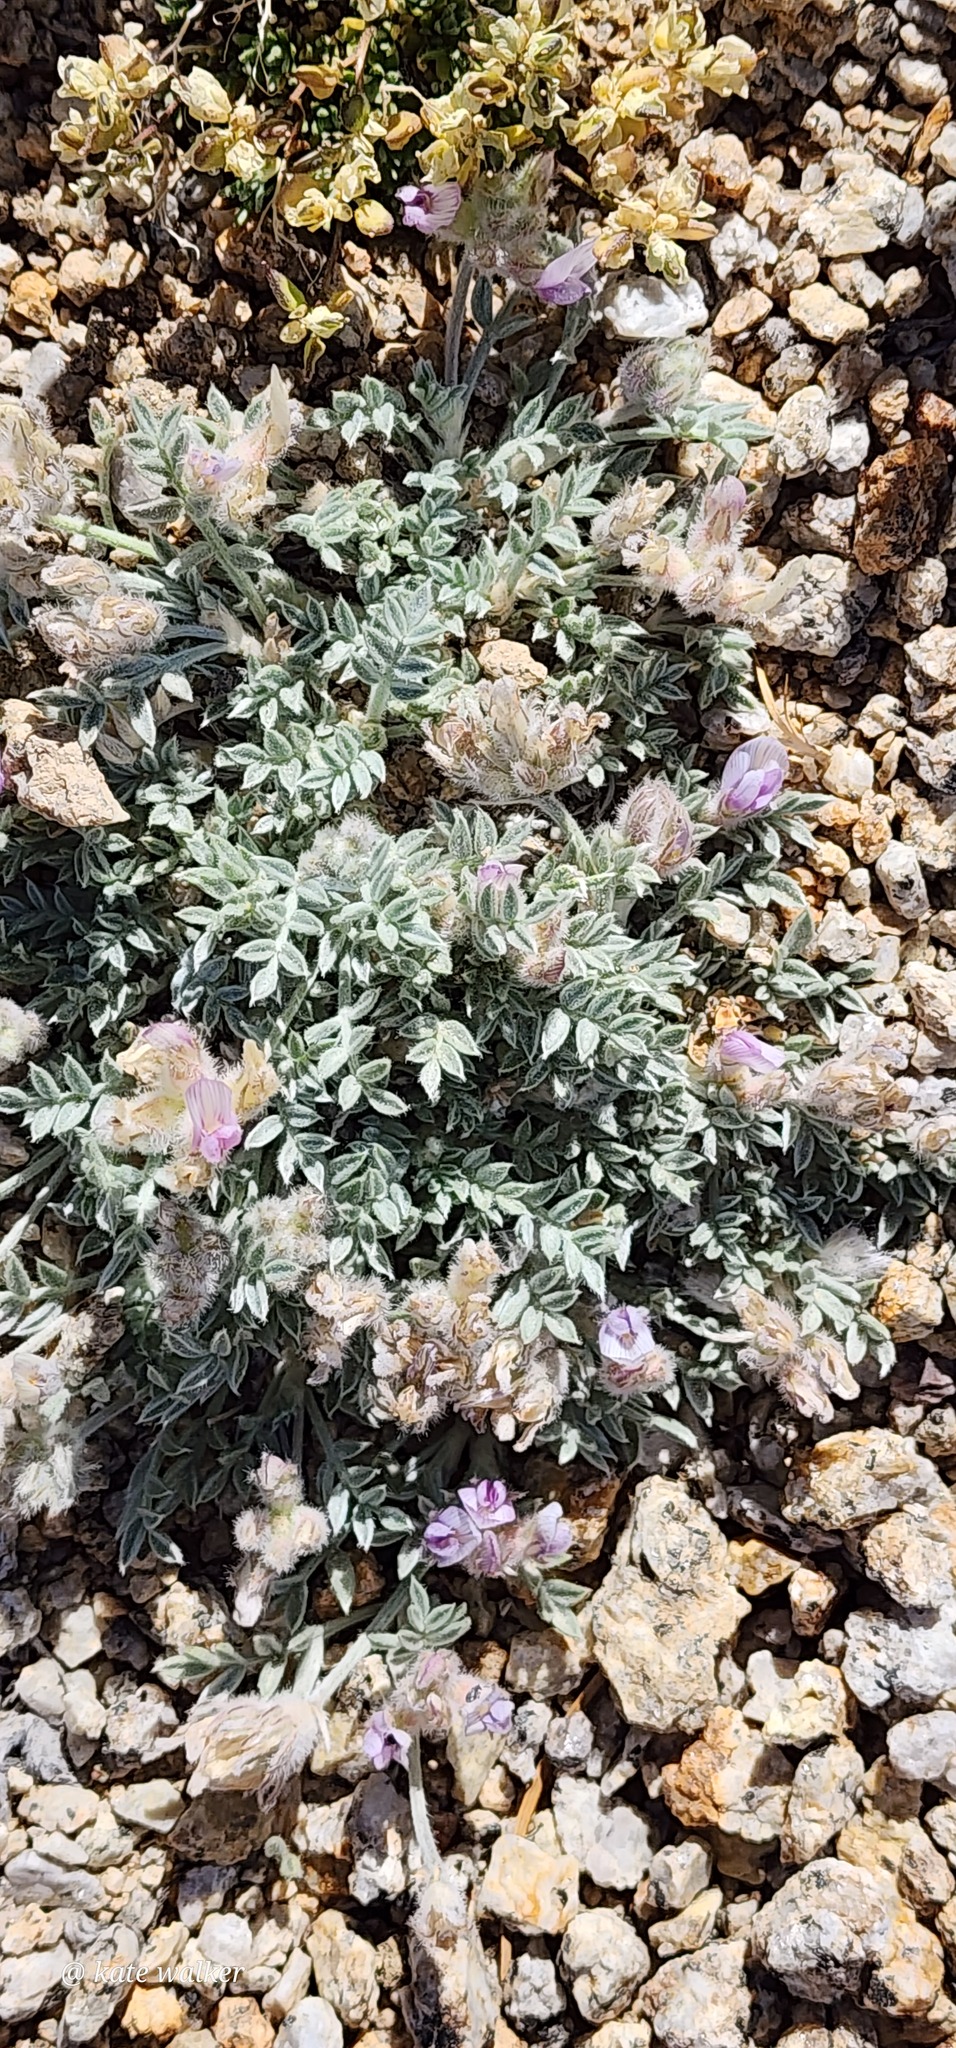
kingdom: Plantae
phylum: Tracheophyta
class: Magnoliopsida
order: Fabales
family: Fabaceae
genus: Astragalus
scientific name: Astragalus austiniae
